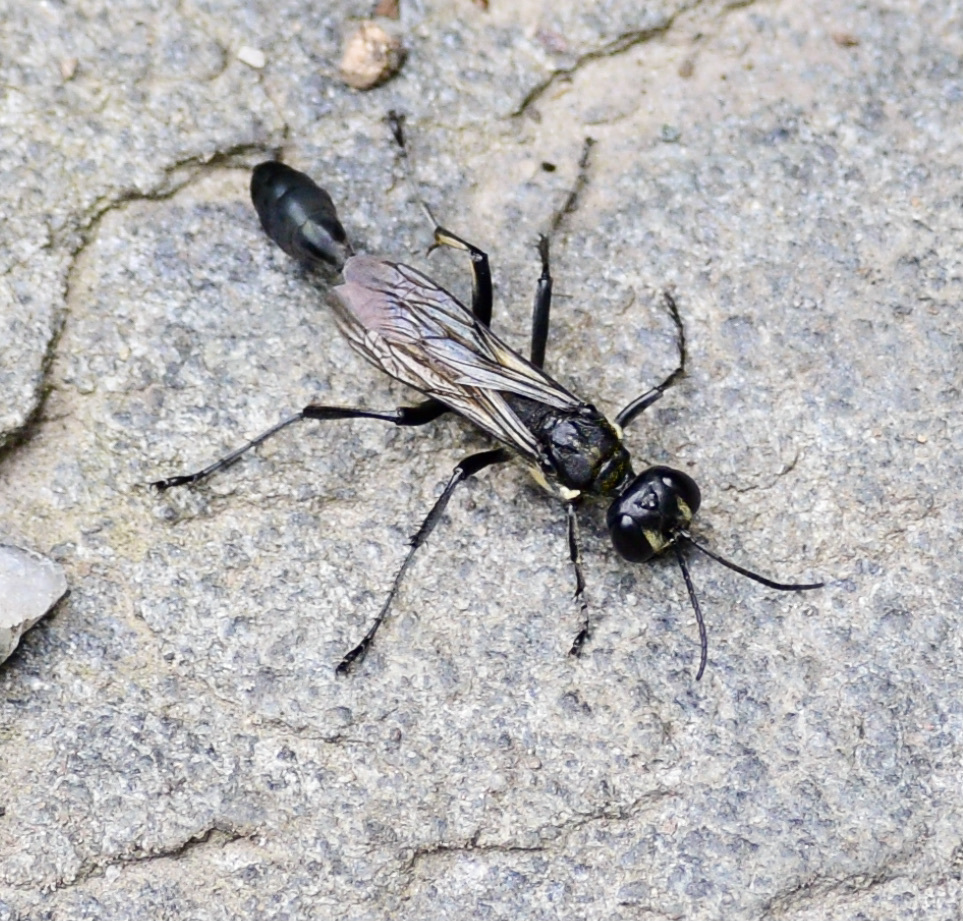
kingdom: Animalia
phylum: Arthropoda
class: Insecta
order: Hymenoptera
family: Sphecidae
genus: Eremnophila
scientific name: Eremnophila aureonotata
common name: Gold-marked thread-waisted wasp
